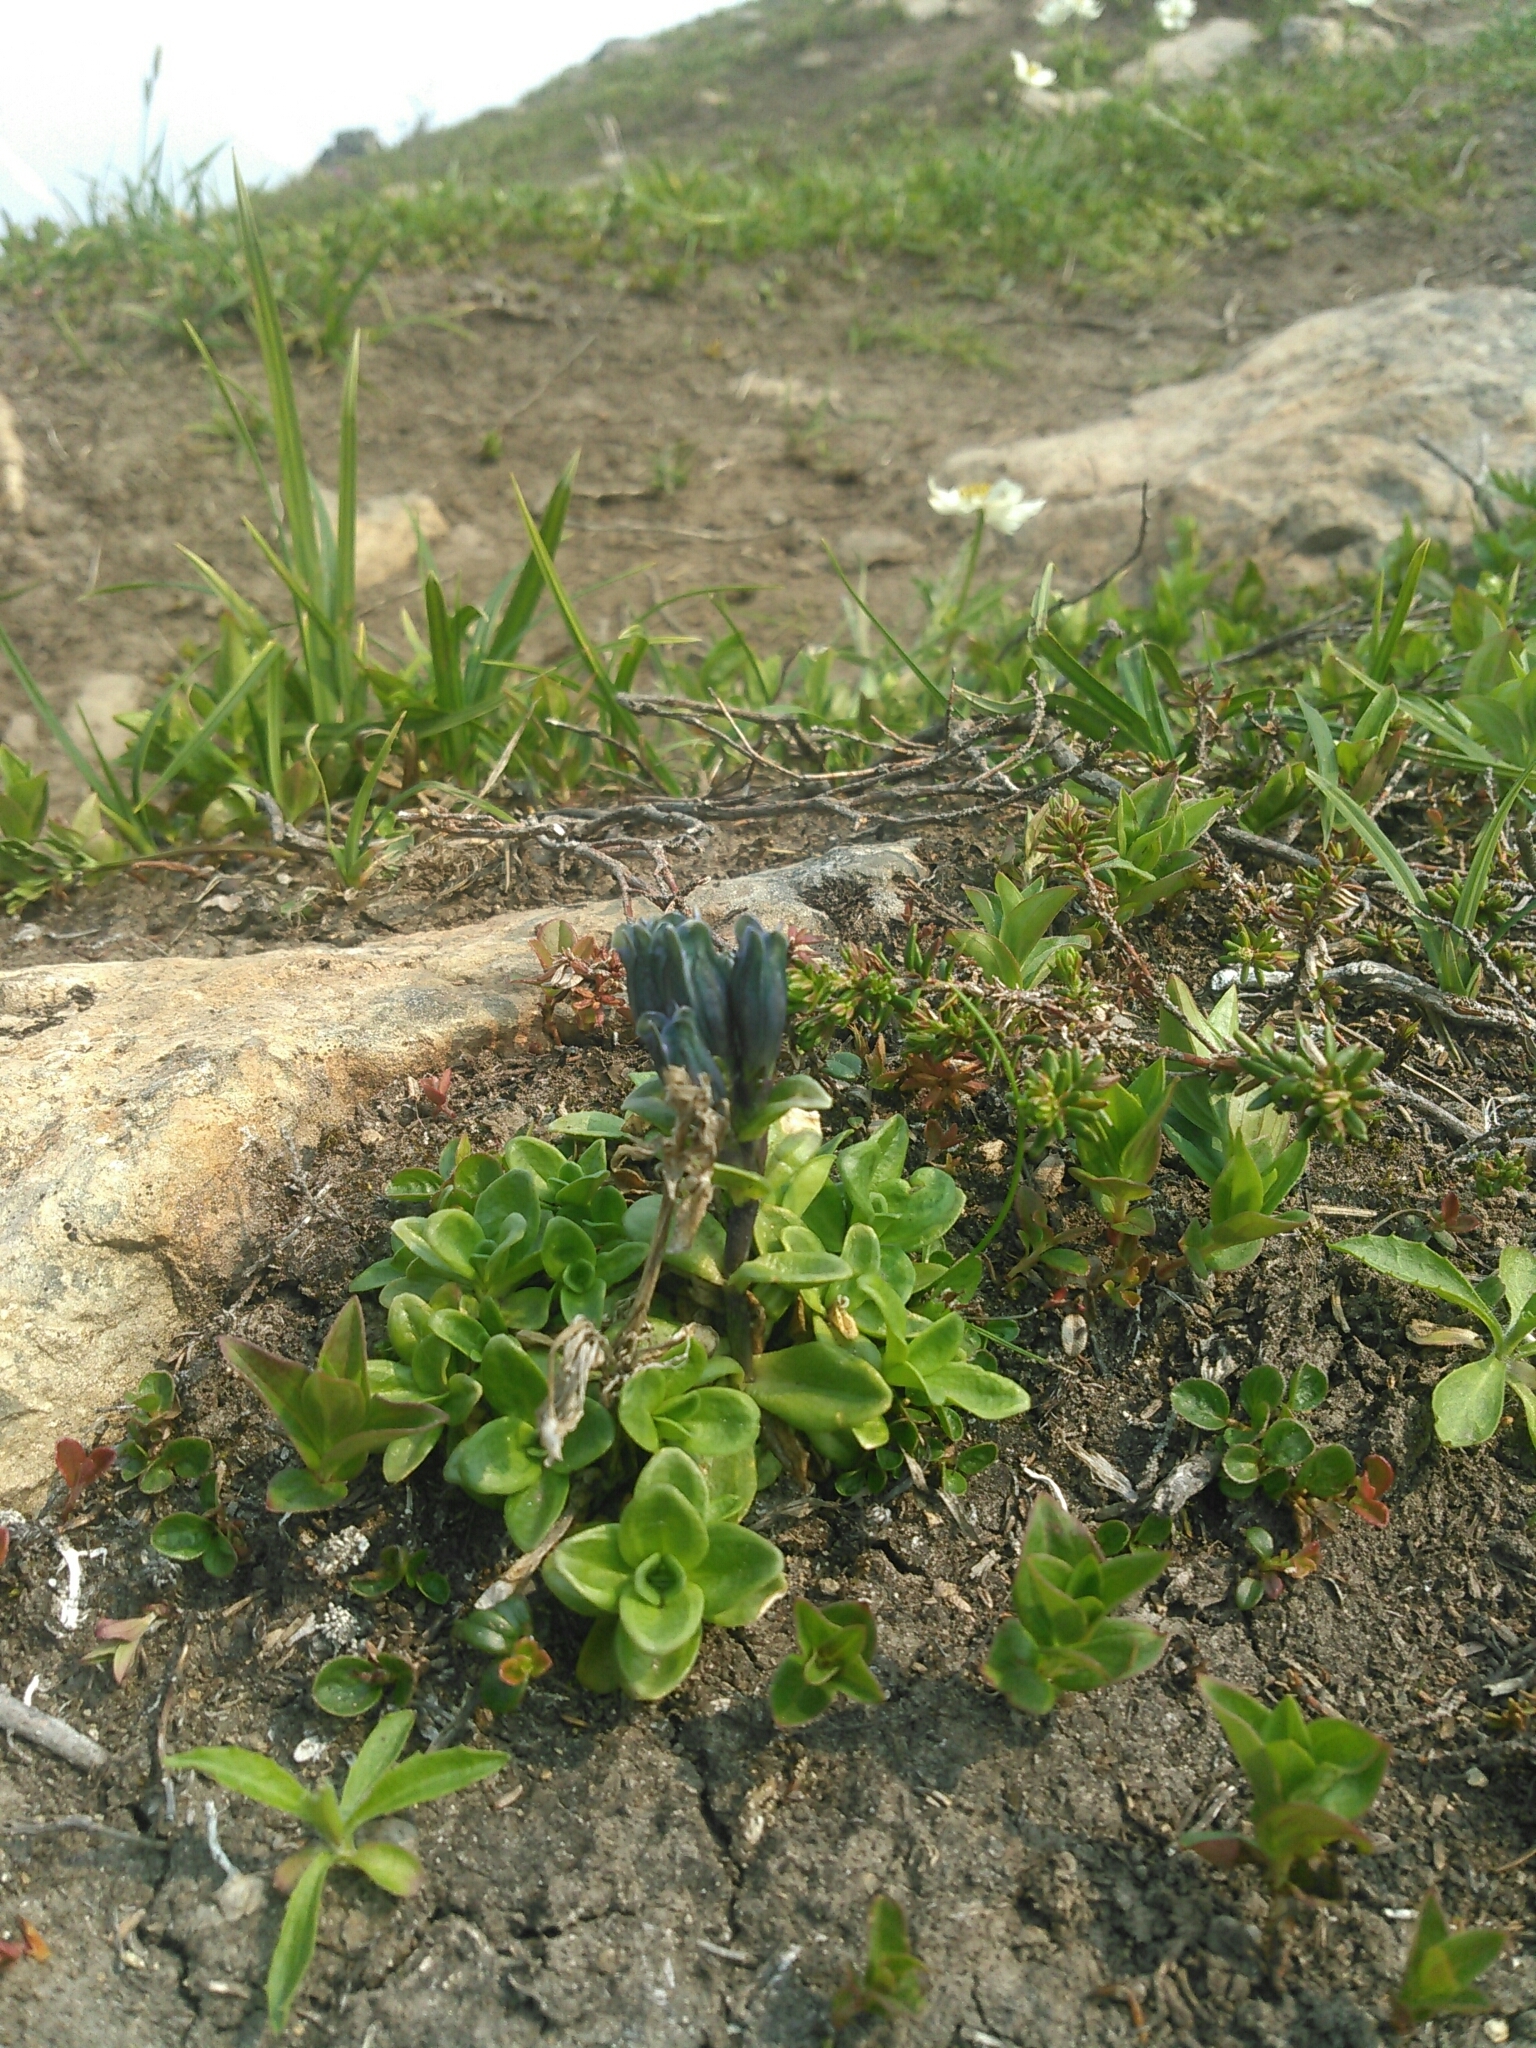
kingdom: Plantae
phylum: Tracheophyta
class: Magnoliopsida
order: Gentianales
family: Gentianaceae
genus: Gentiana
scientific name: Gentiana glauca
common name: Alpine gentian
